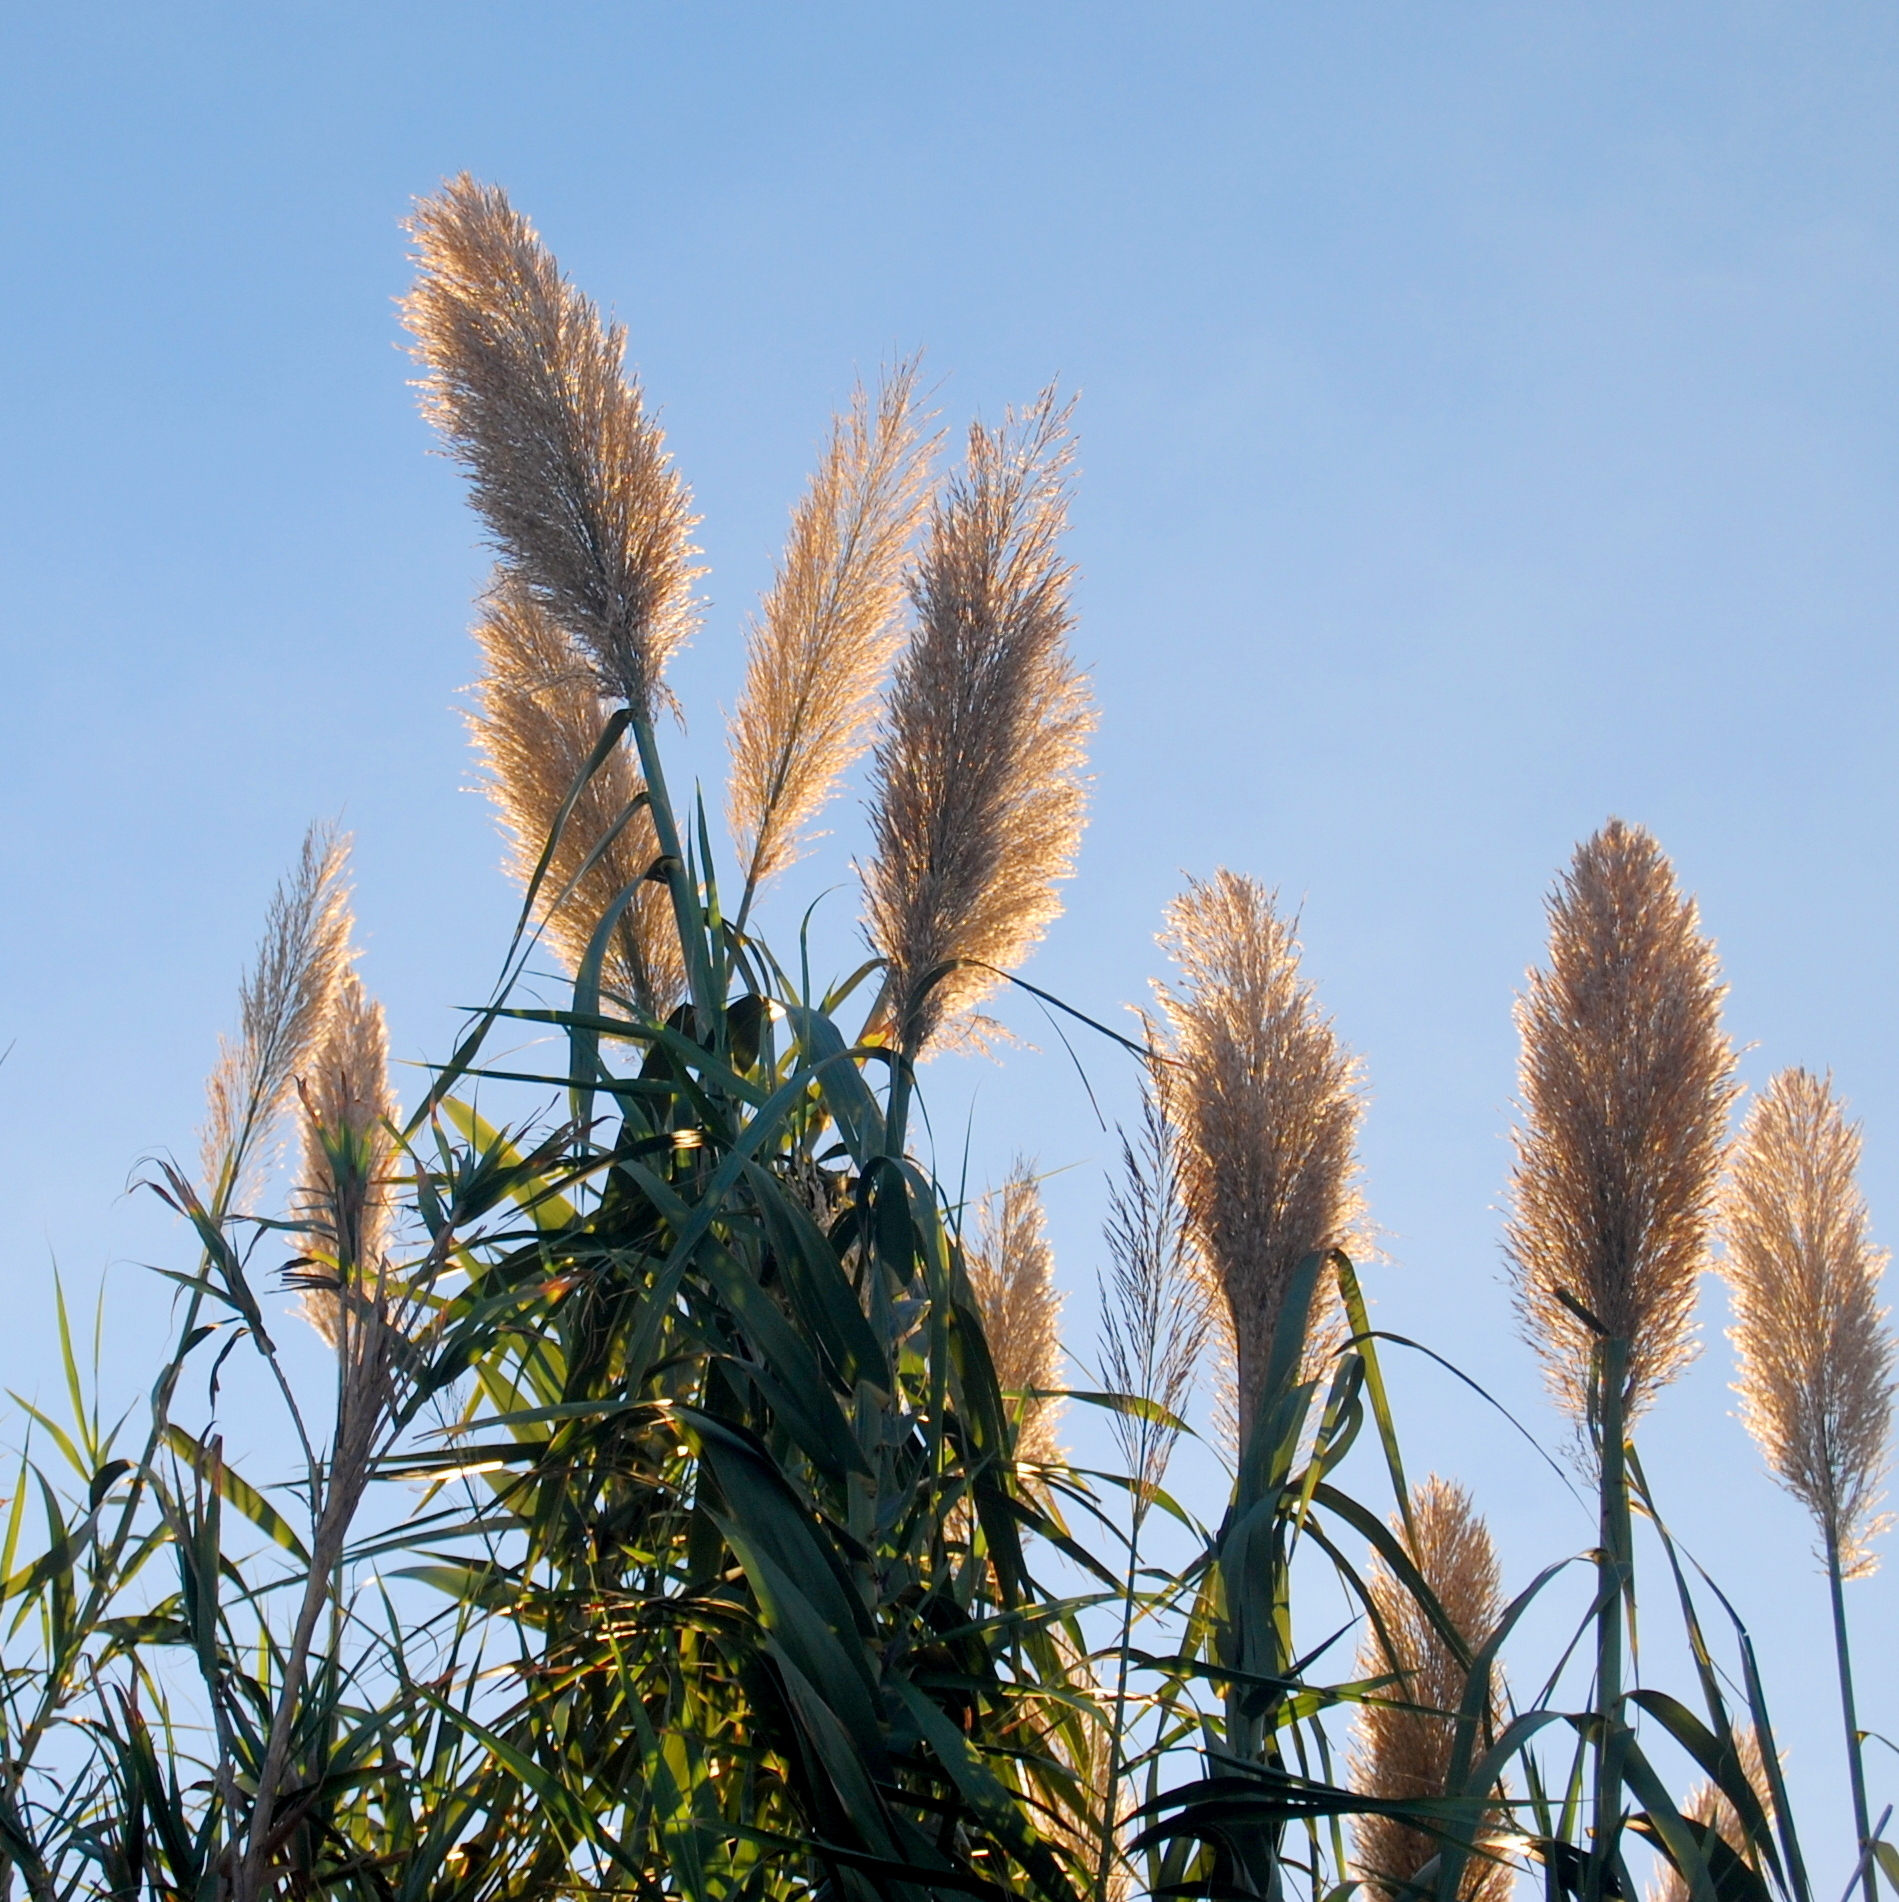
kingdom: Plantae
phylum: Tracheophyta
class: Liliopsida
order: Poales
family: Poaceae
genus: Arundo
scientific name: Arundo donax
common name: Giant reed
